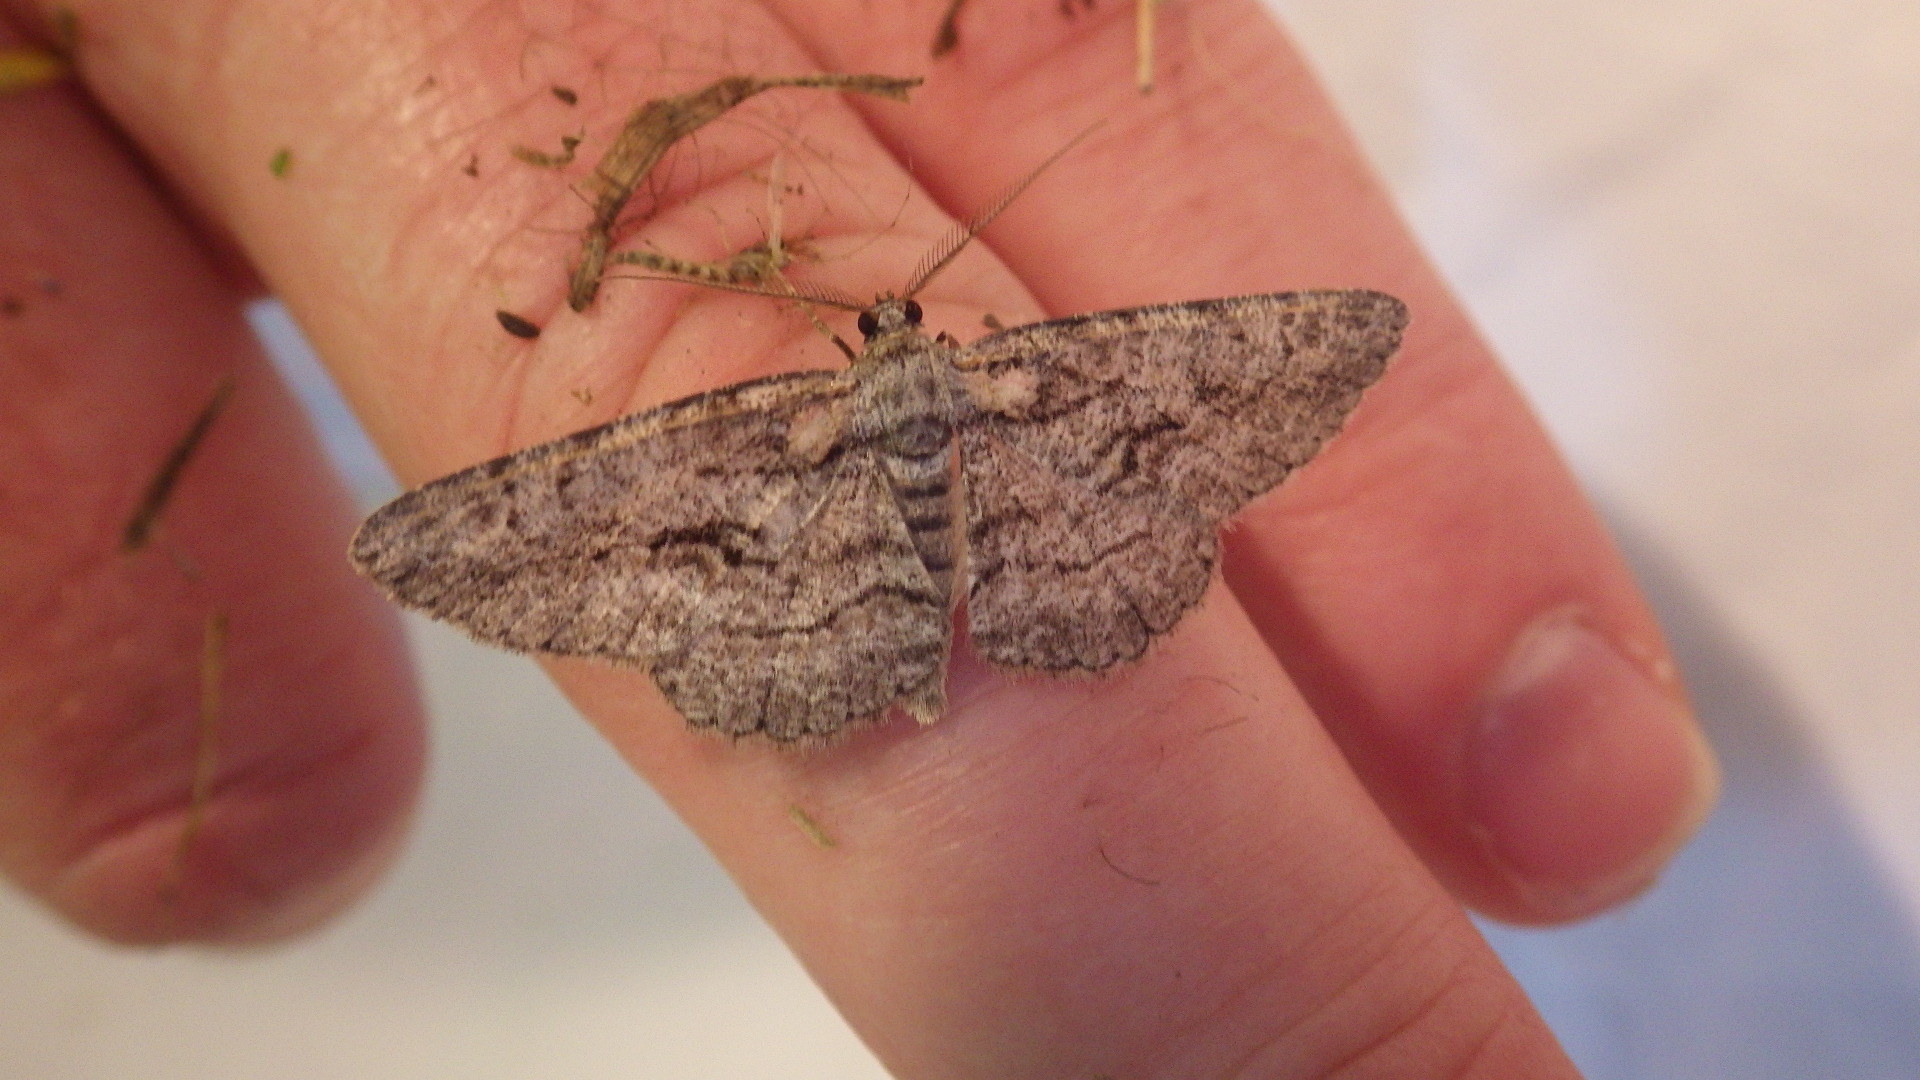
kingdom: Animalia
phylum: Arthropoda
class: Insecta
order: Lepidoptera
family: Geometridae
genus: Anavitrinella
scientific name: Anavitrinella pampinaria
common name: Common gray
